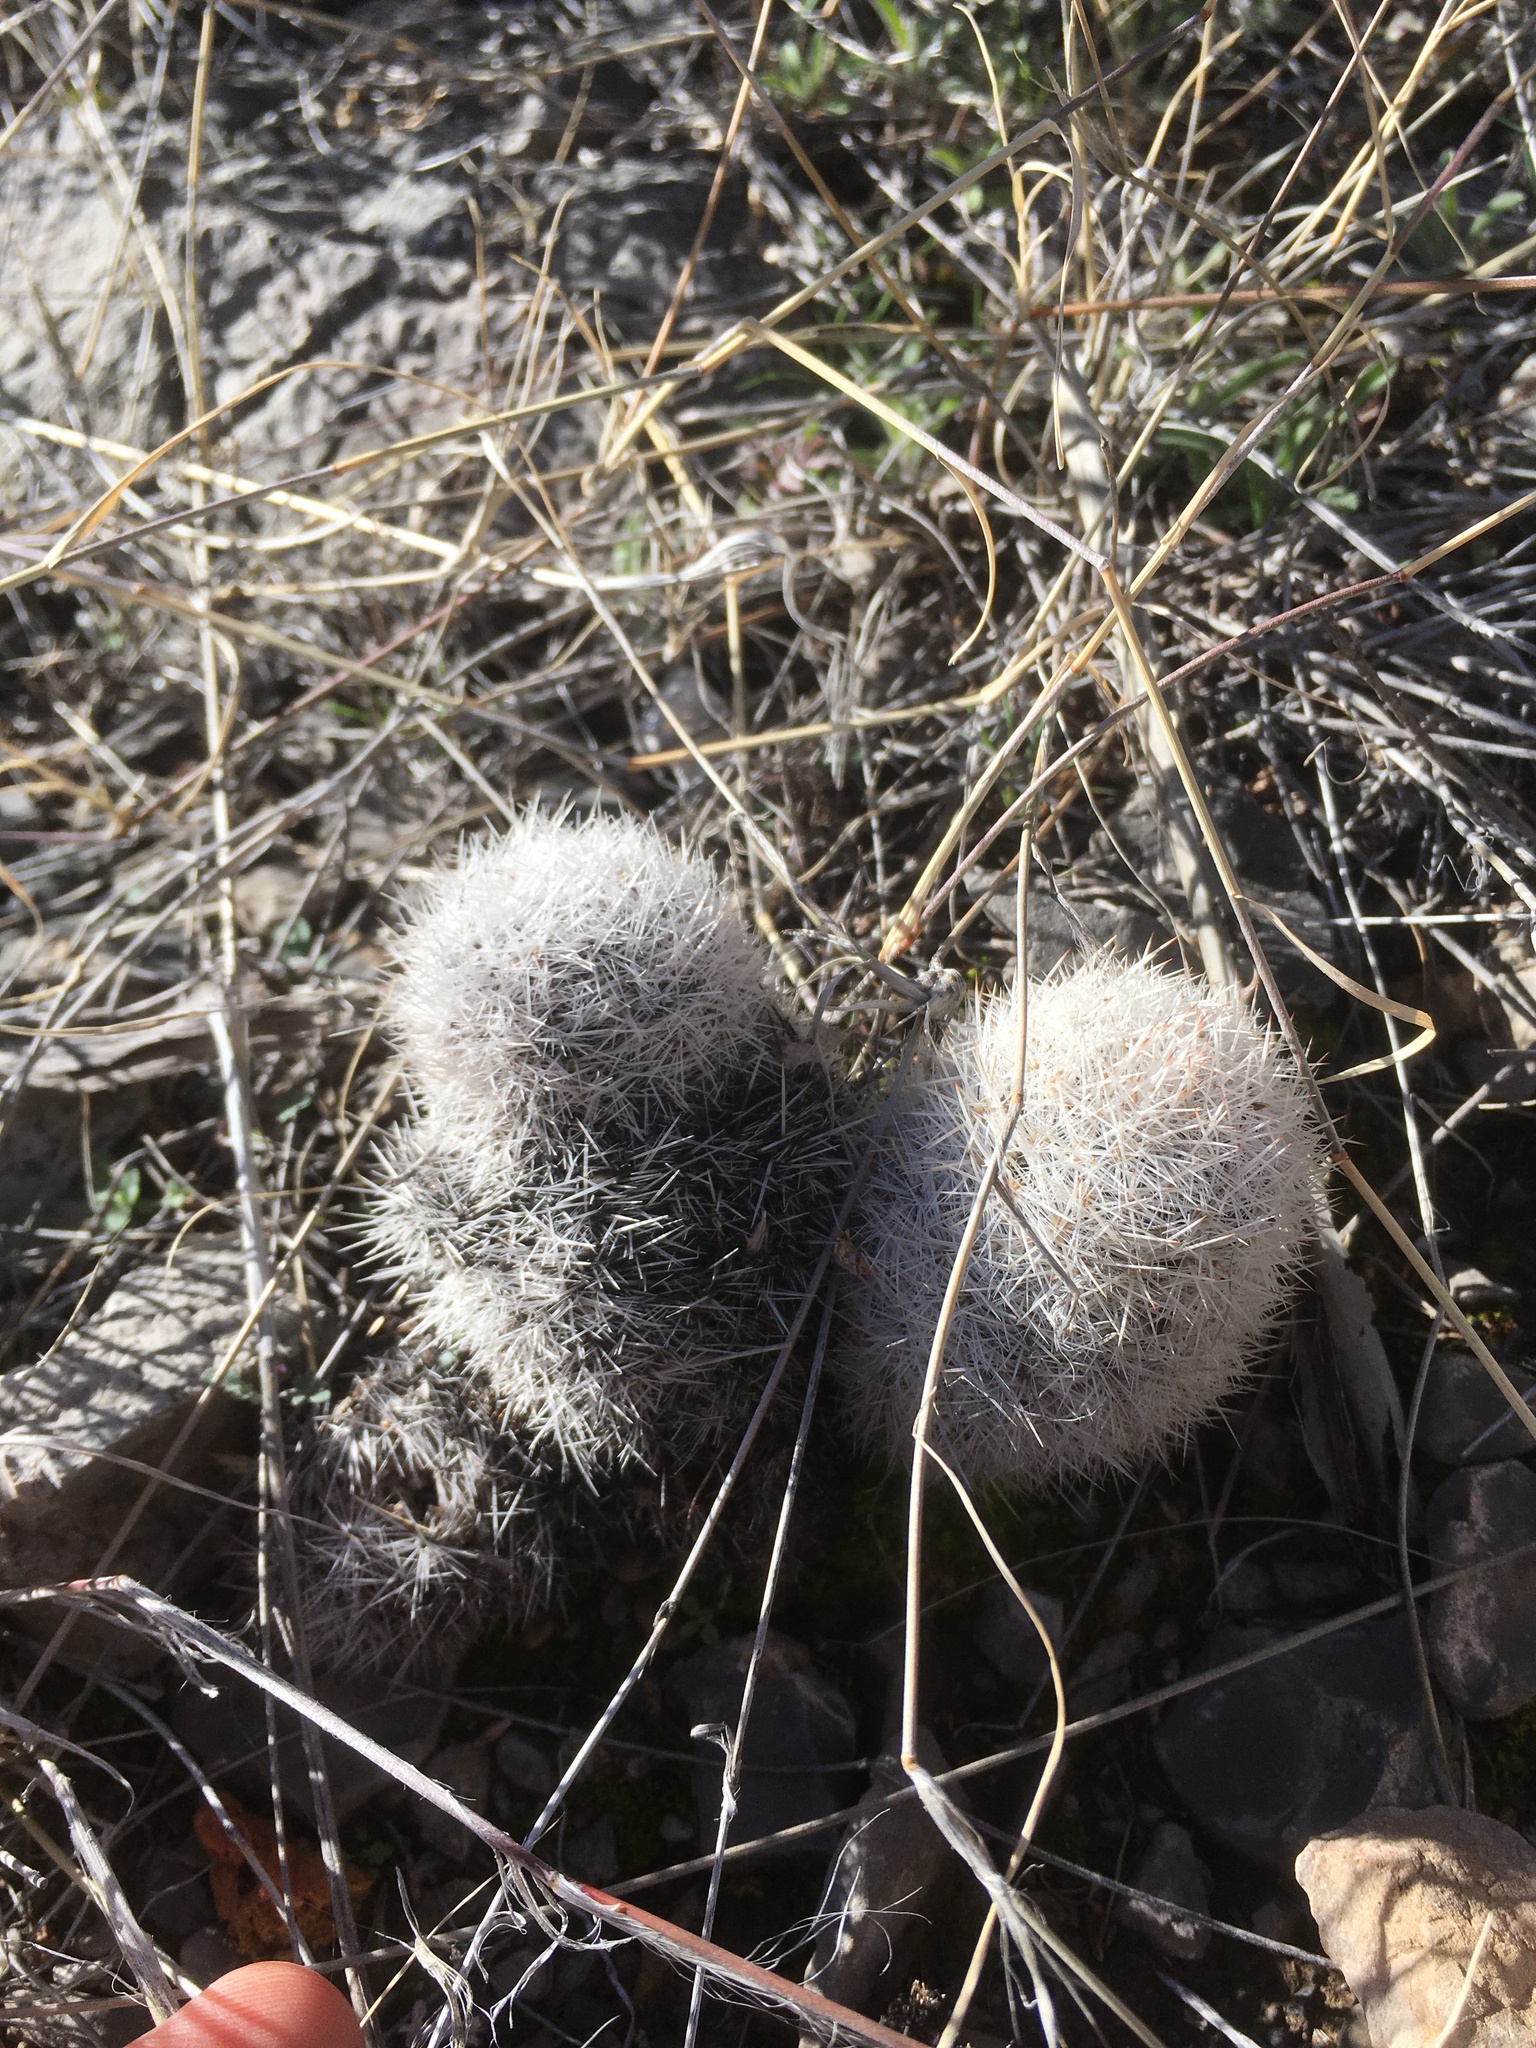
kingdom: Plantae
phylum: Tracheophyta
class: Magnoliopsida
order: Caryophyllales
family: Cactaceae
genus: Pelecyphora
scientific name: Pelecyphora sneedii
